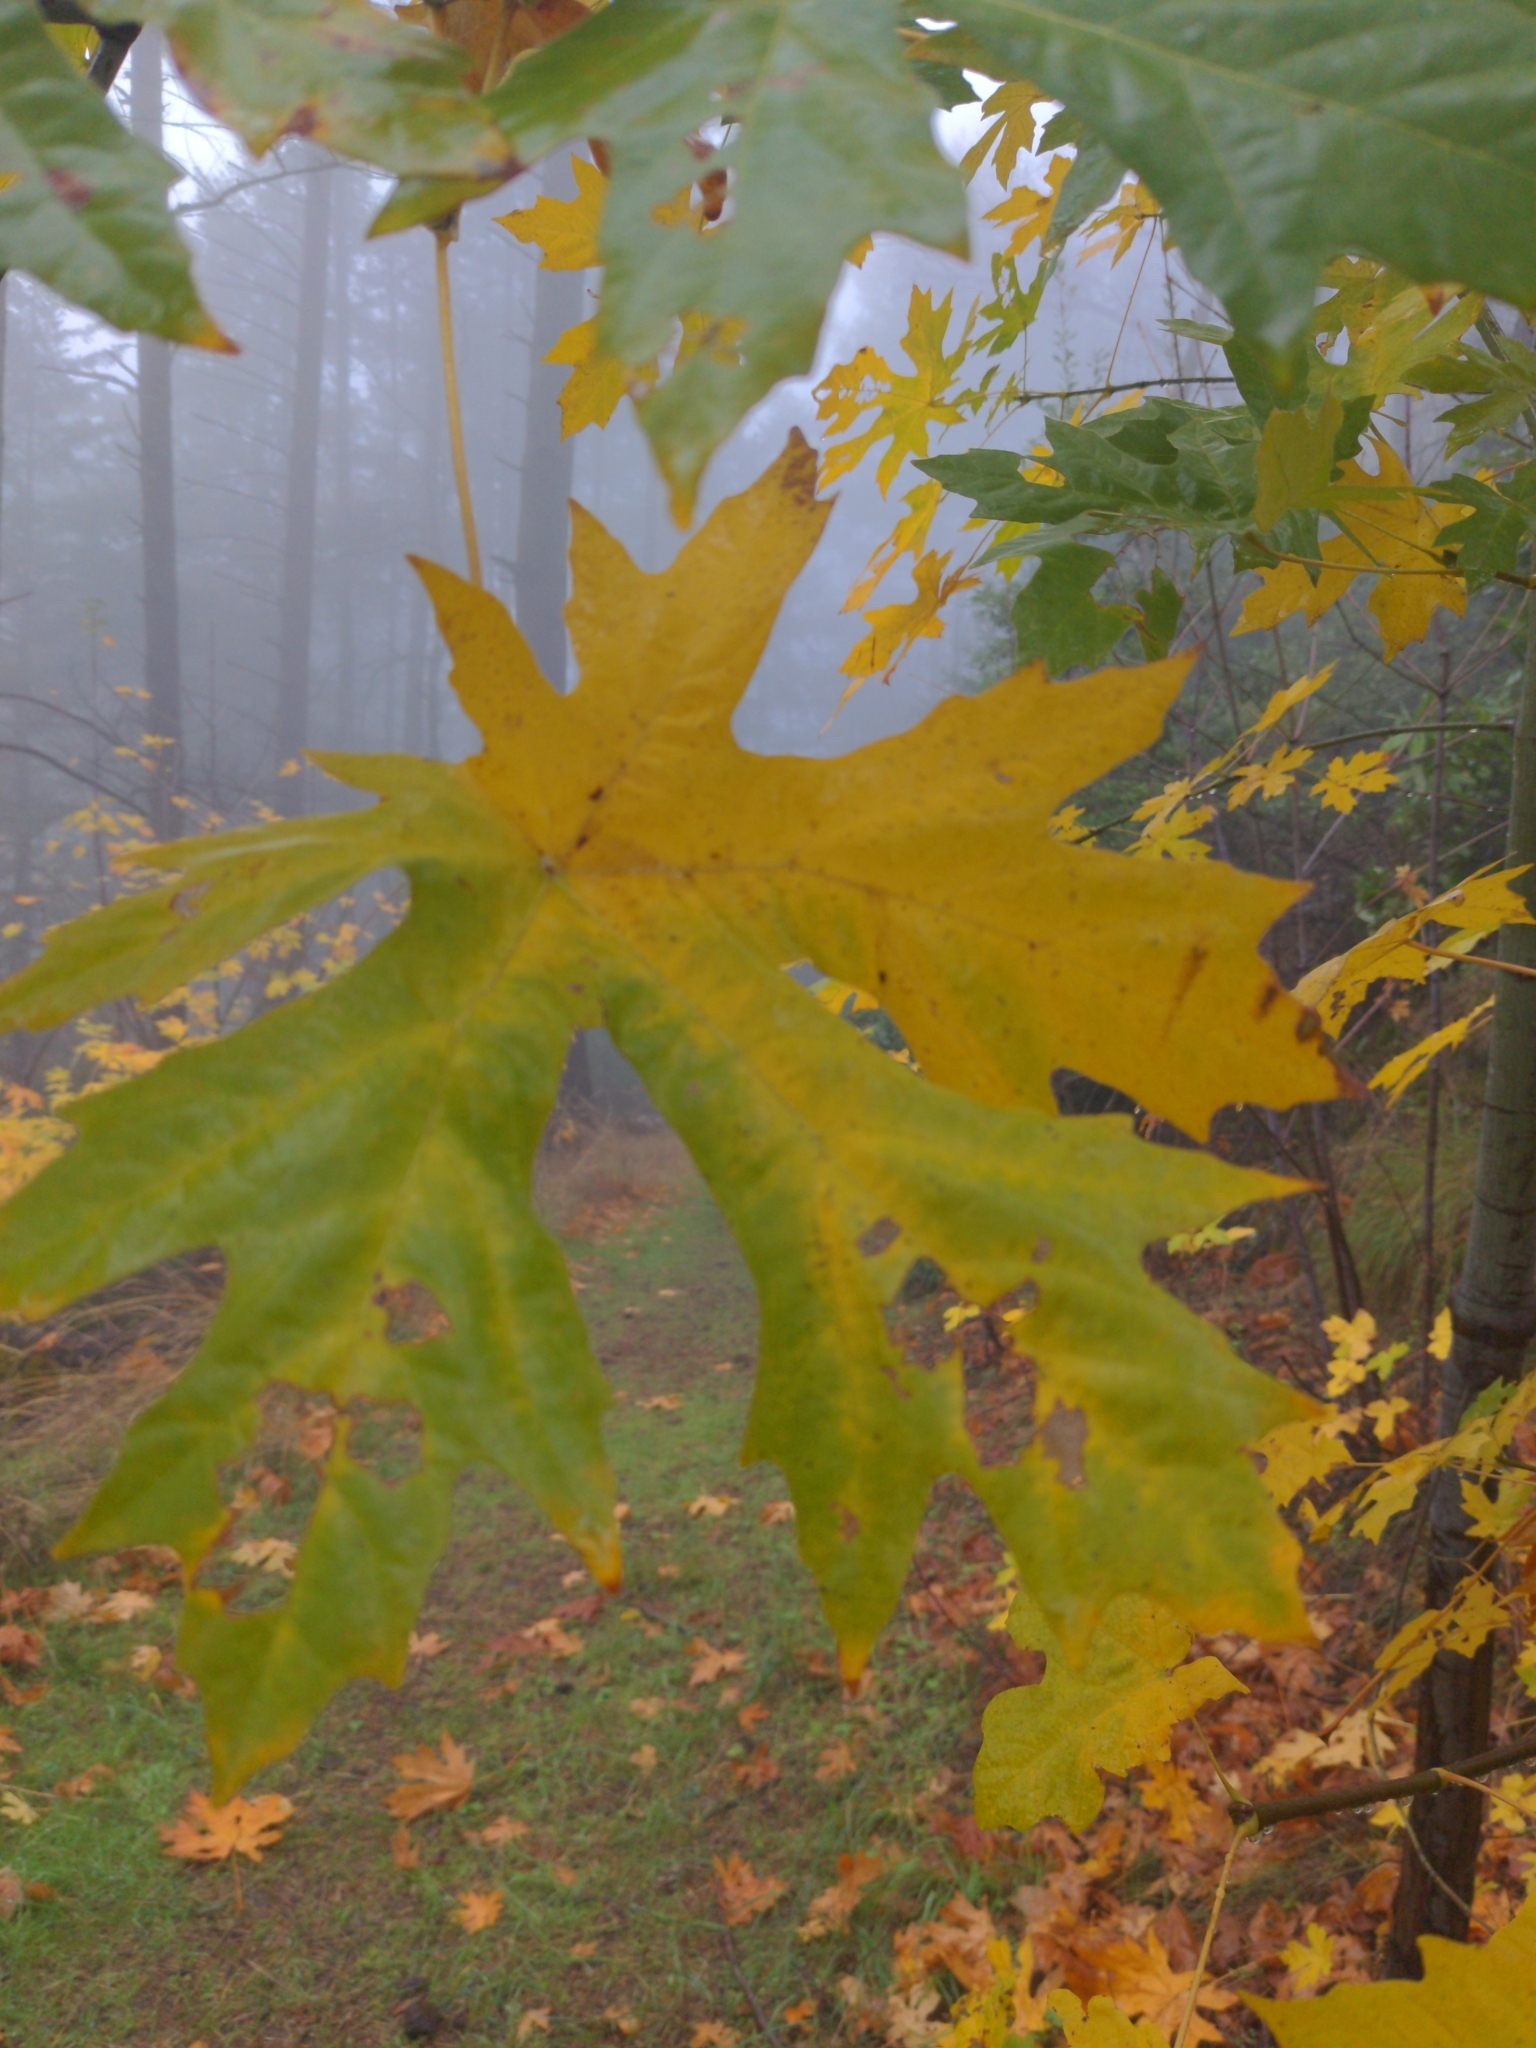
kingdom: Plantae
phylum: Tracheophyta
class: Magnoliopsida
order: Sapindales
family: Sapindaceae
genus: Acer
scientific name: Acer macrophyllum
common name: Oregon maple
